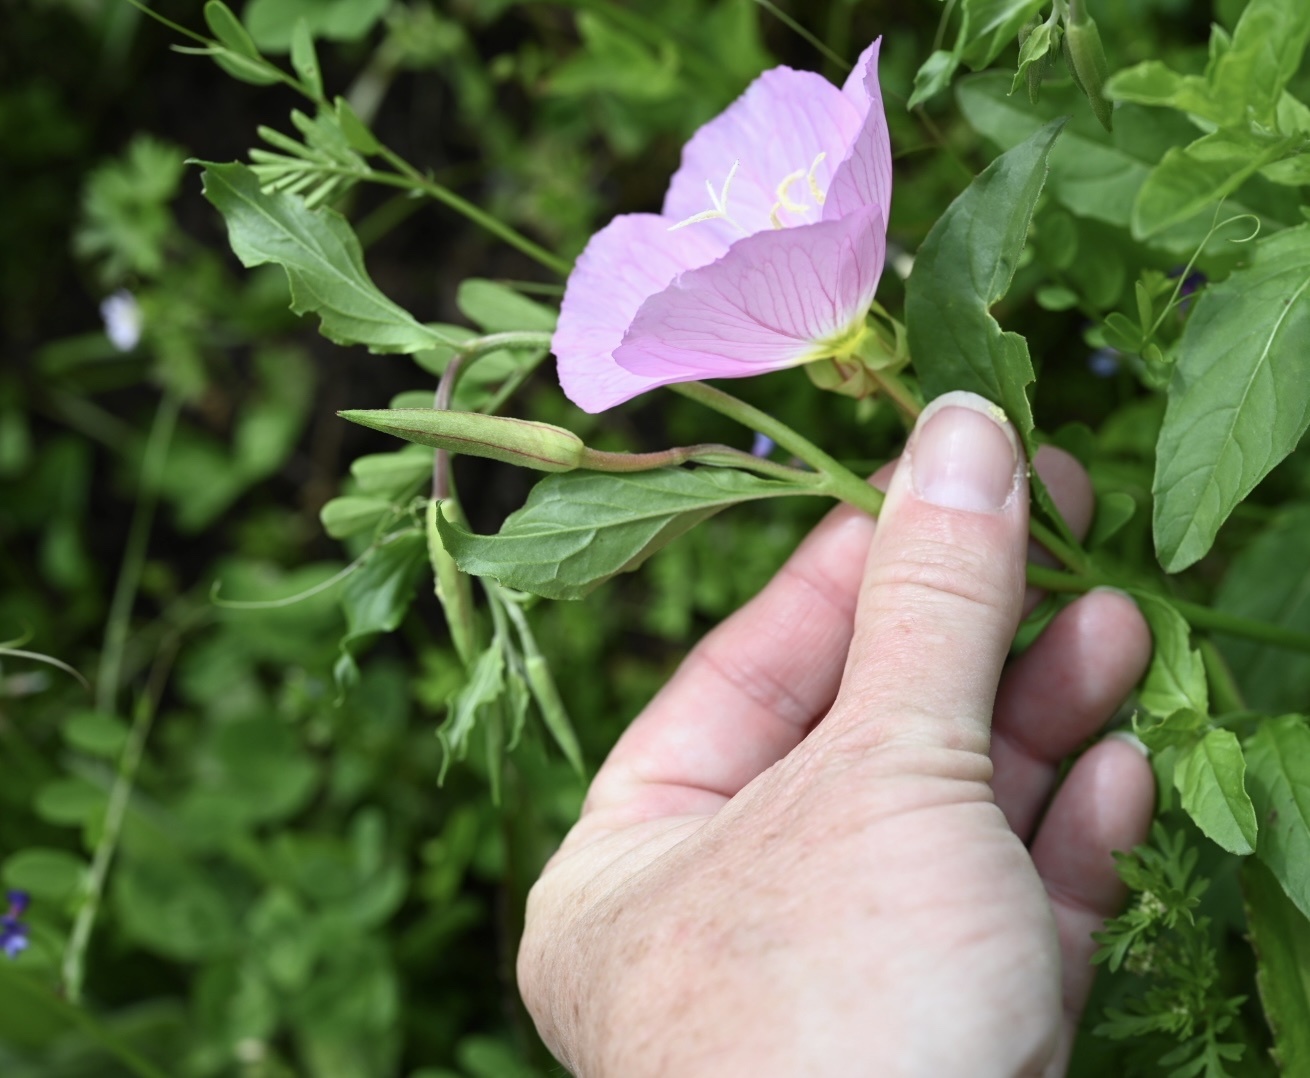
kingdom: Plantae
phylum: Tracheophyta
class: Magnoliopsida
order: Myrtales
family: Onagraceae
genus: Oenothera
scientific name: Oenothera speciosa
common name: White evening-primrose
